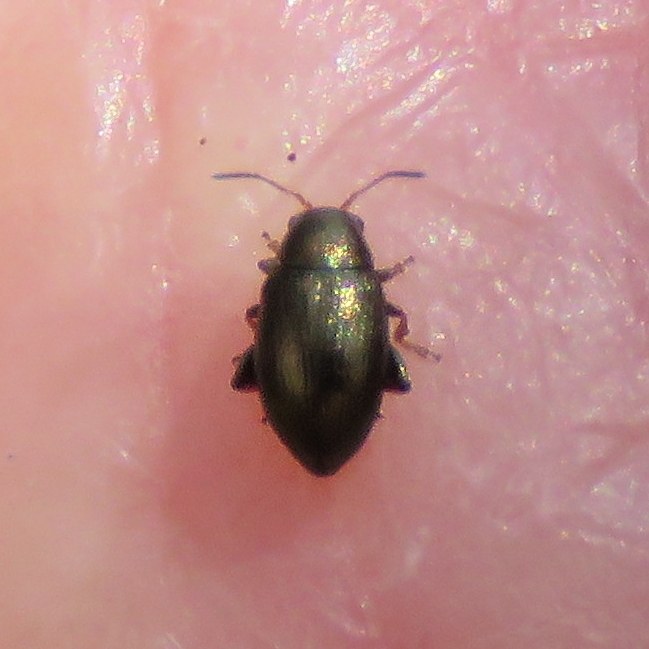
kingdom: Animalia
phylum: Arthropoda
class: Insecta
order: Coleoptera
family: Chrysomelidae
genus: Chaetocnema
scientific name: Chaetocnema hortensis
